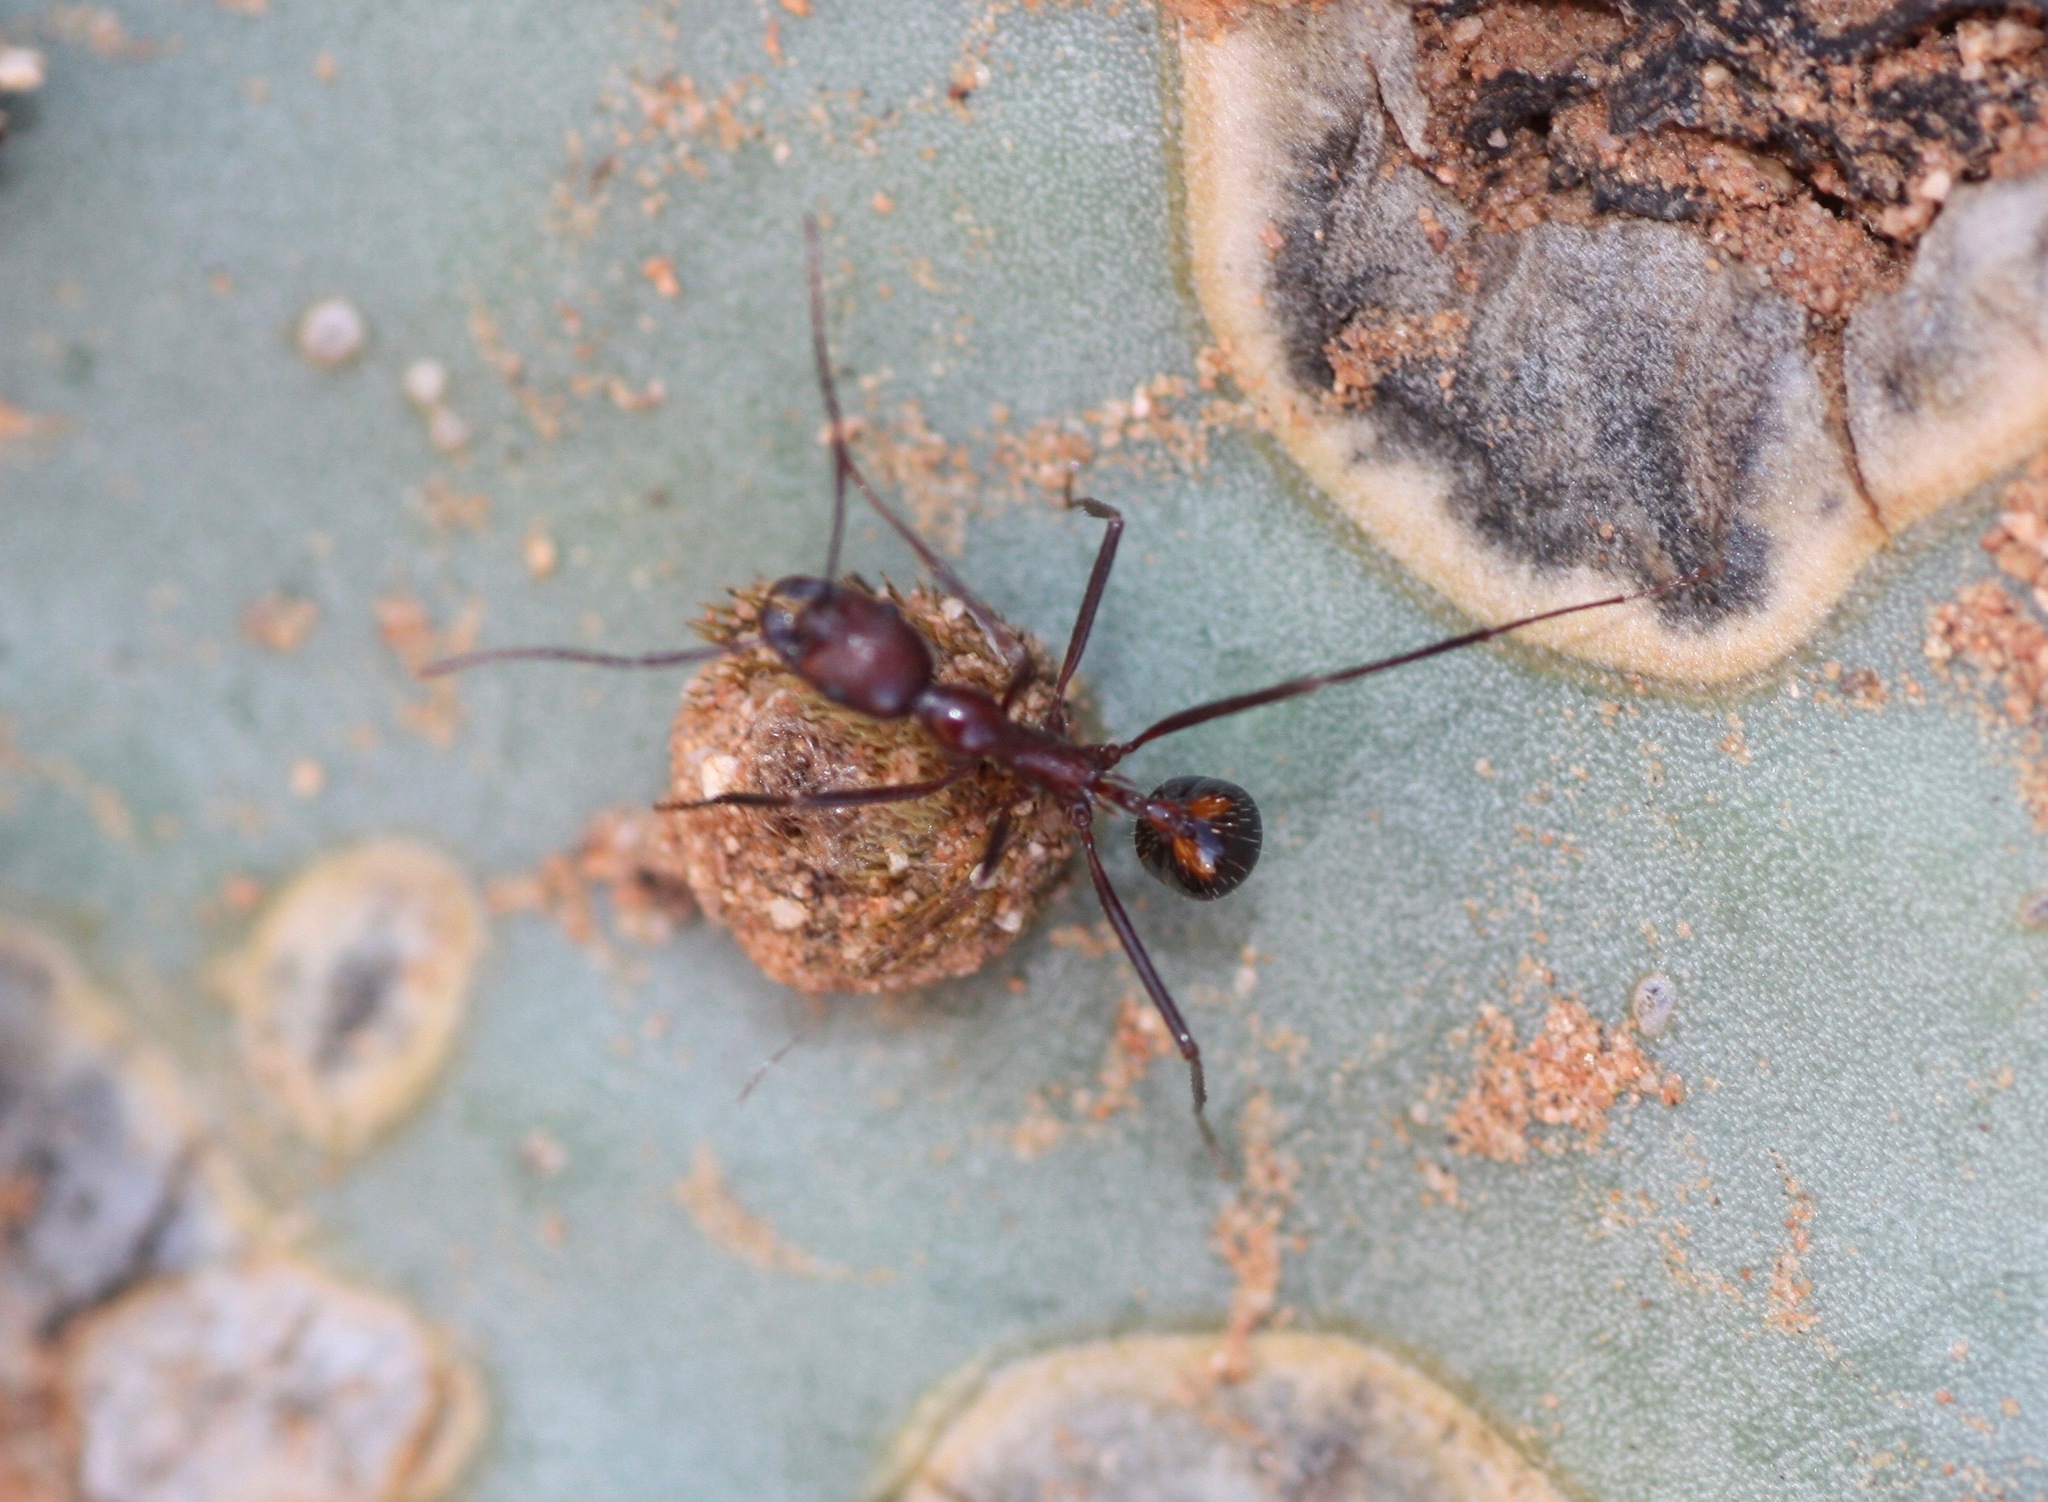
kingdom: Animalia
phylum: Arthropoda
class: Insecta
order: Hymenoptera
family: Formicidae
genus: Novomessor
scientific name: Novomessor cockerelli
